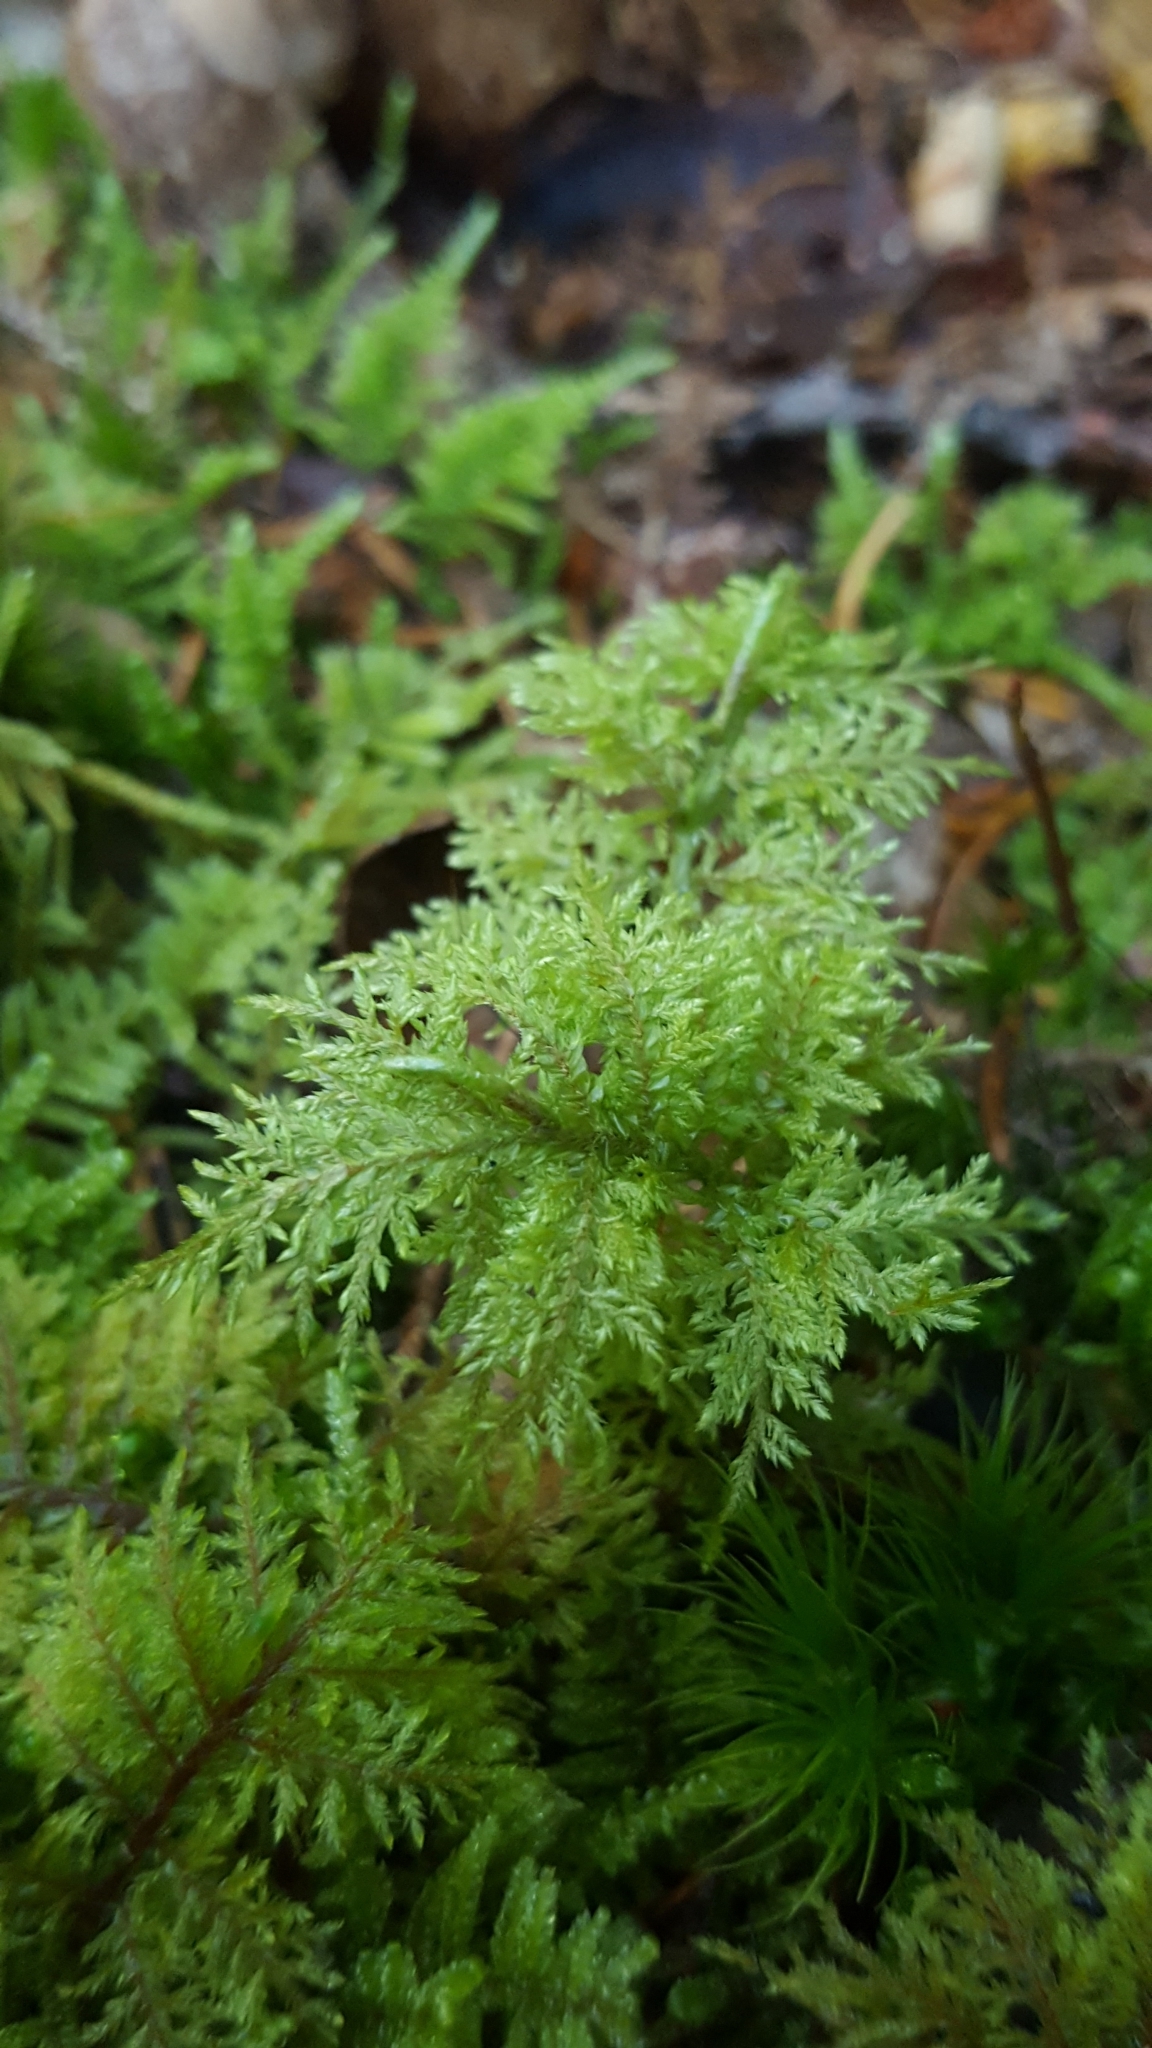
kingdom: Plantae
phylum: Bryophyta
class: Bryopsida
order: Hypnales
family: Hylocomiaceae
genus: Hylocomium
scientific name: Hylocomium splendens
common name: Stairstep moss
